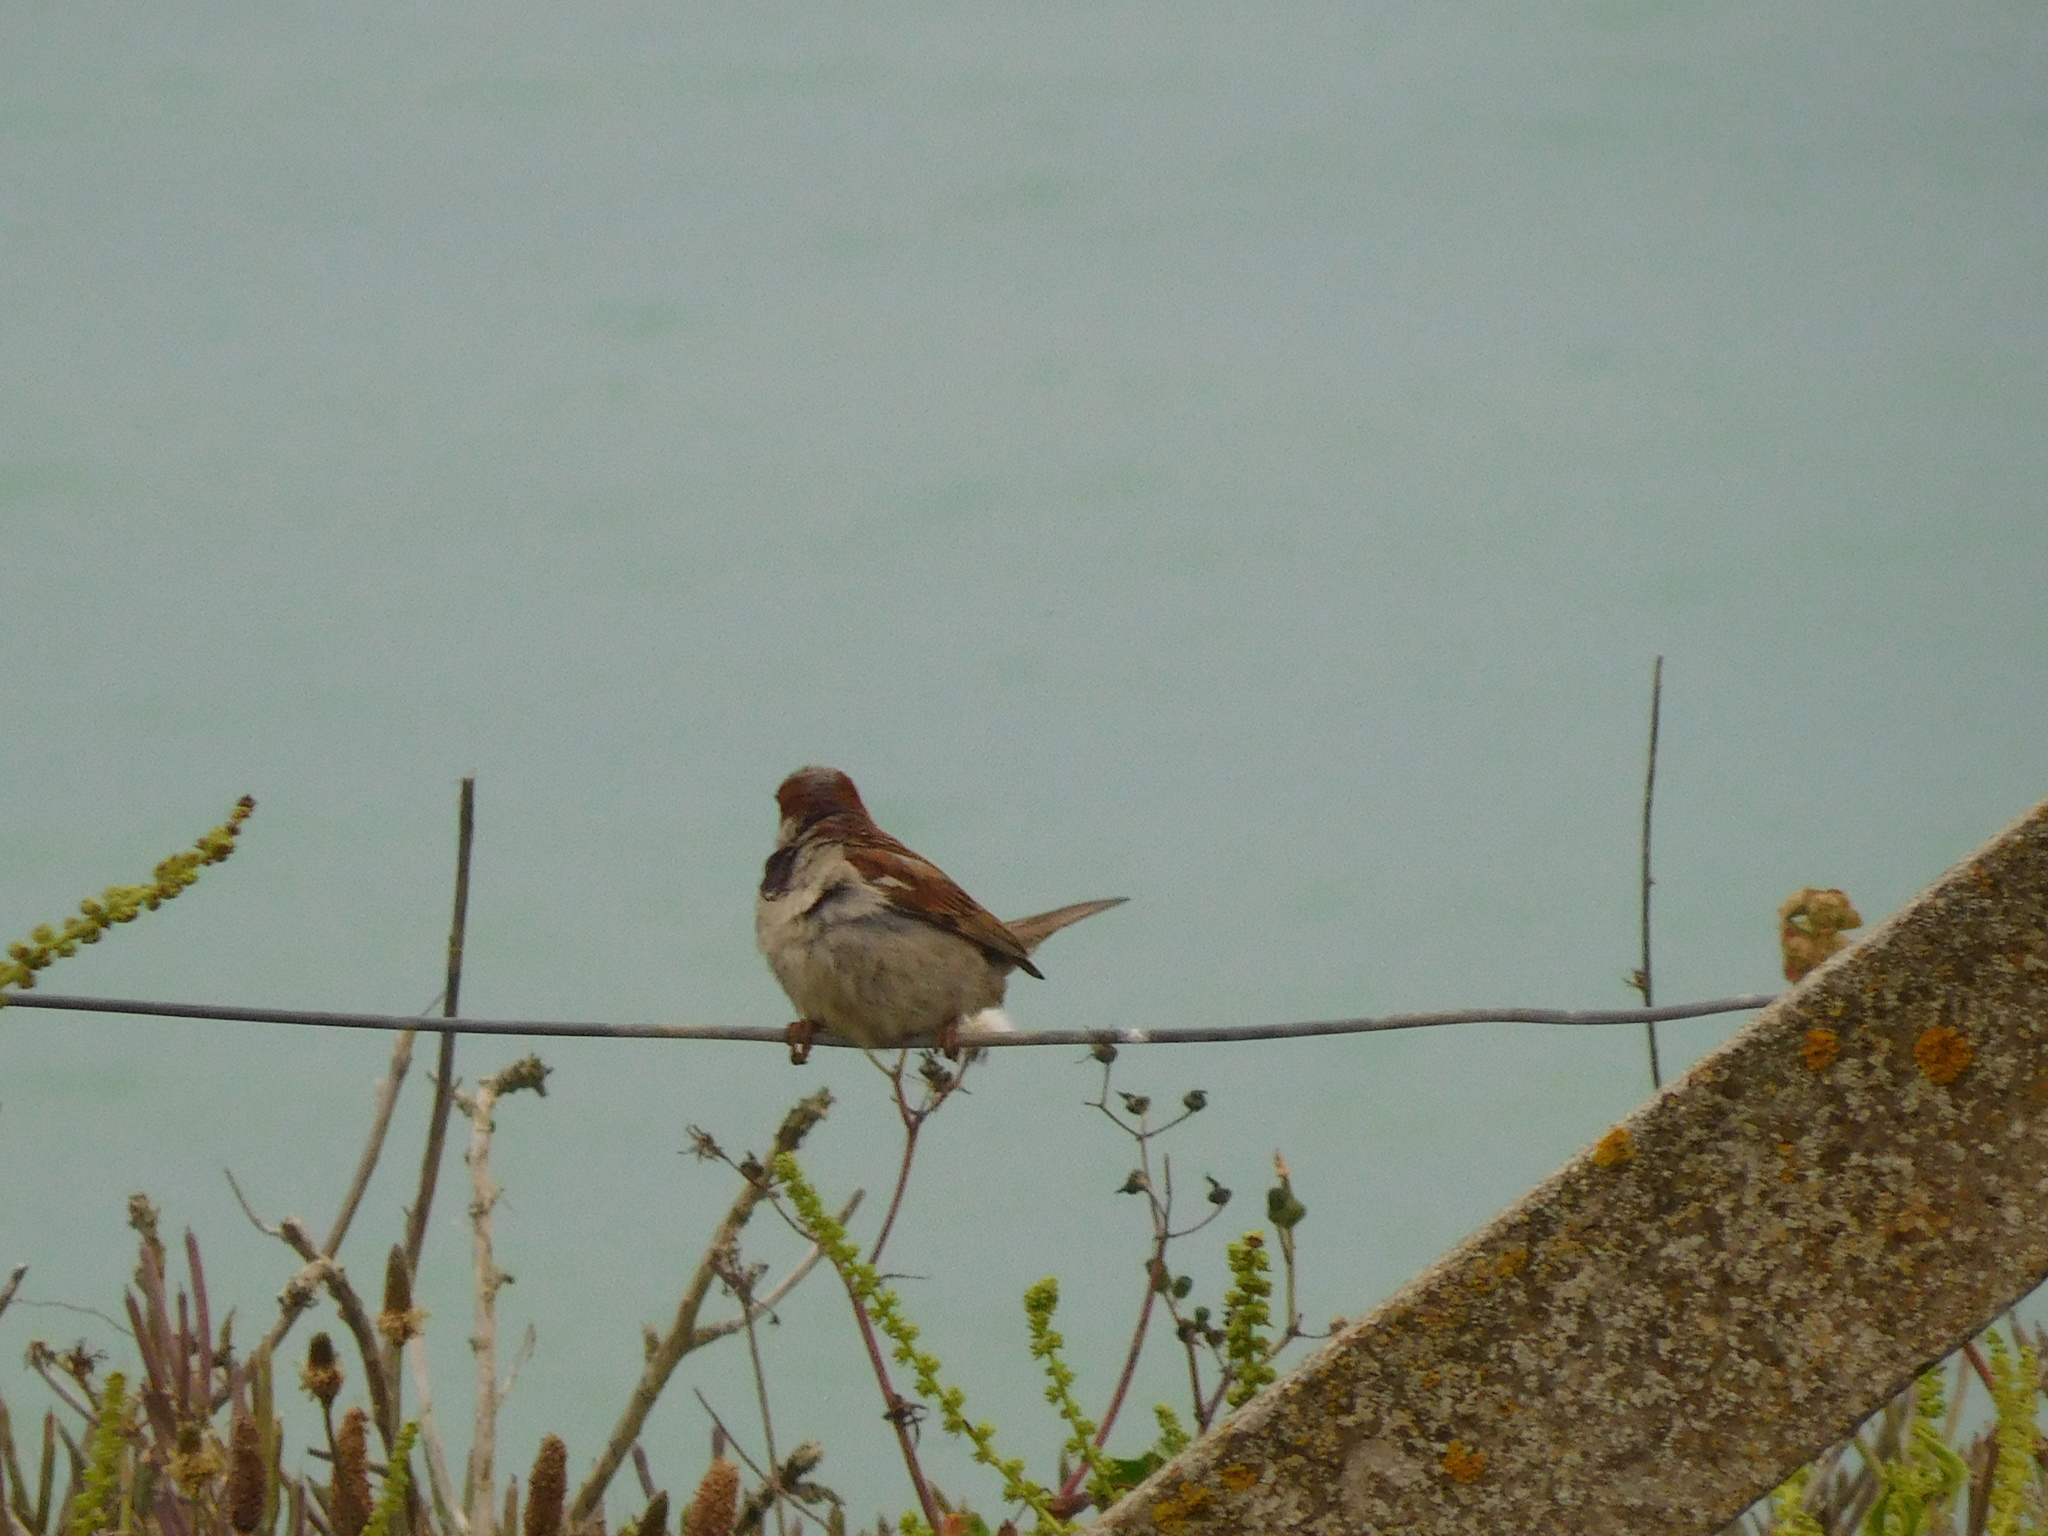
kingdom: Animalia
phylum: Chordata
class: Aves
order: Passeriformes
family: Passeridae
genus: Passer
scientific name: Passer domesticus
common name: House sparrow
